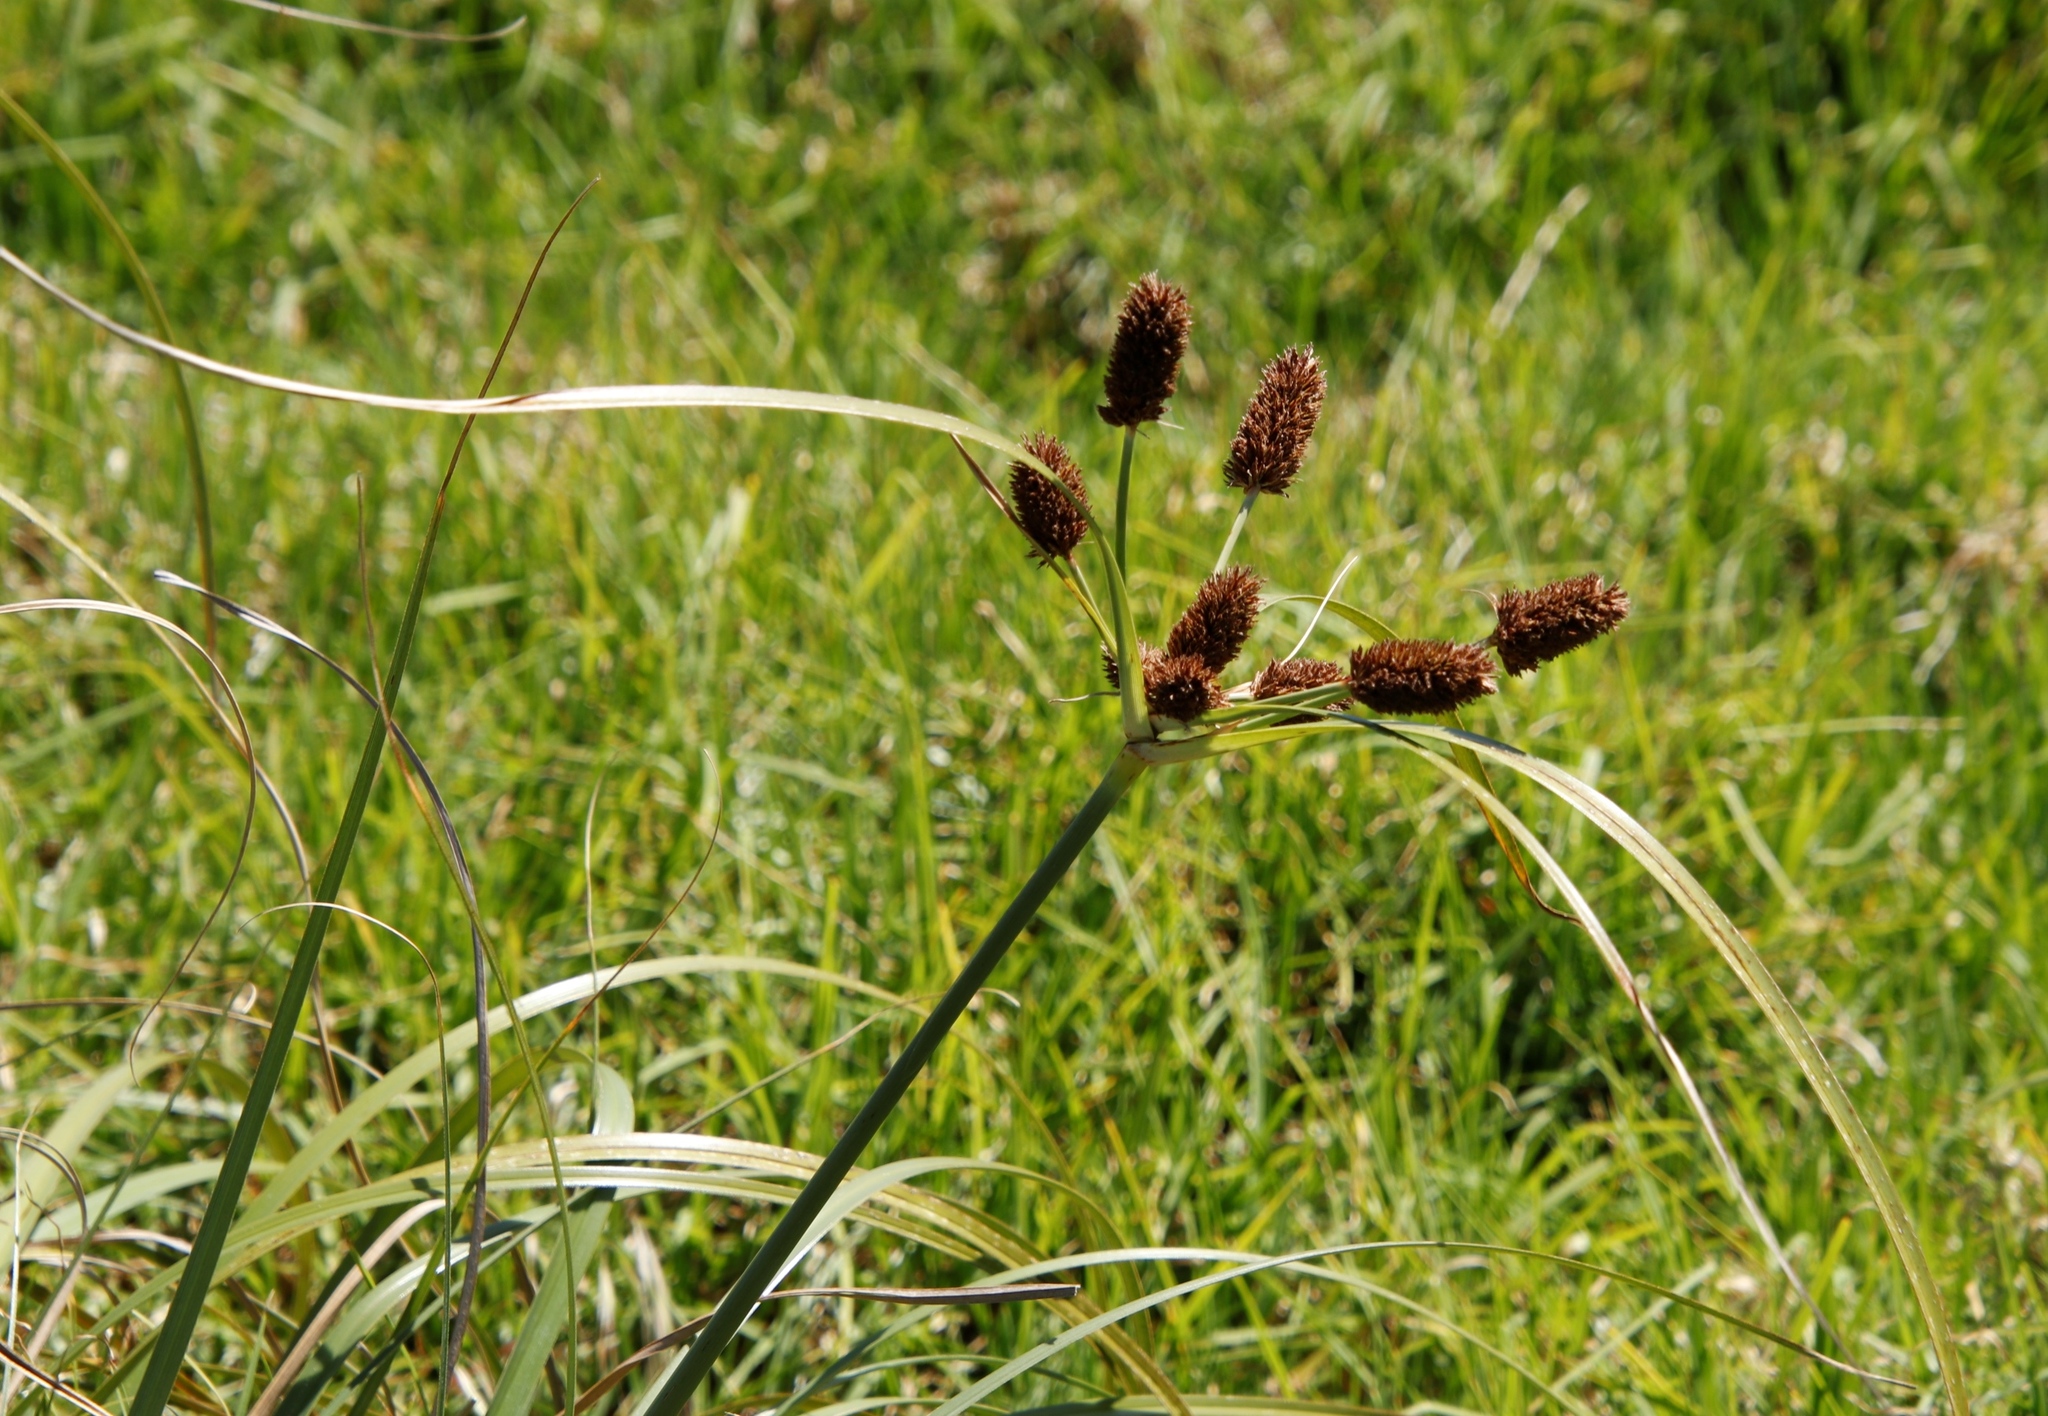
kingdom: Plantae
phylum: Tracheophyta
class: Liliopsida
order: Poales
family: Cyperaceae
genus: Cyperus
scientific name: Cyperus thunbergii
